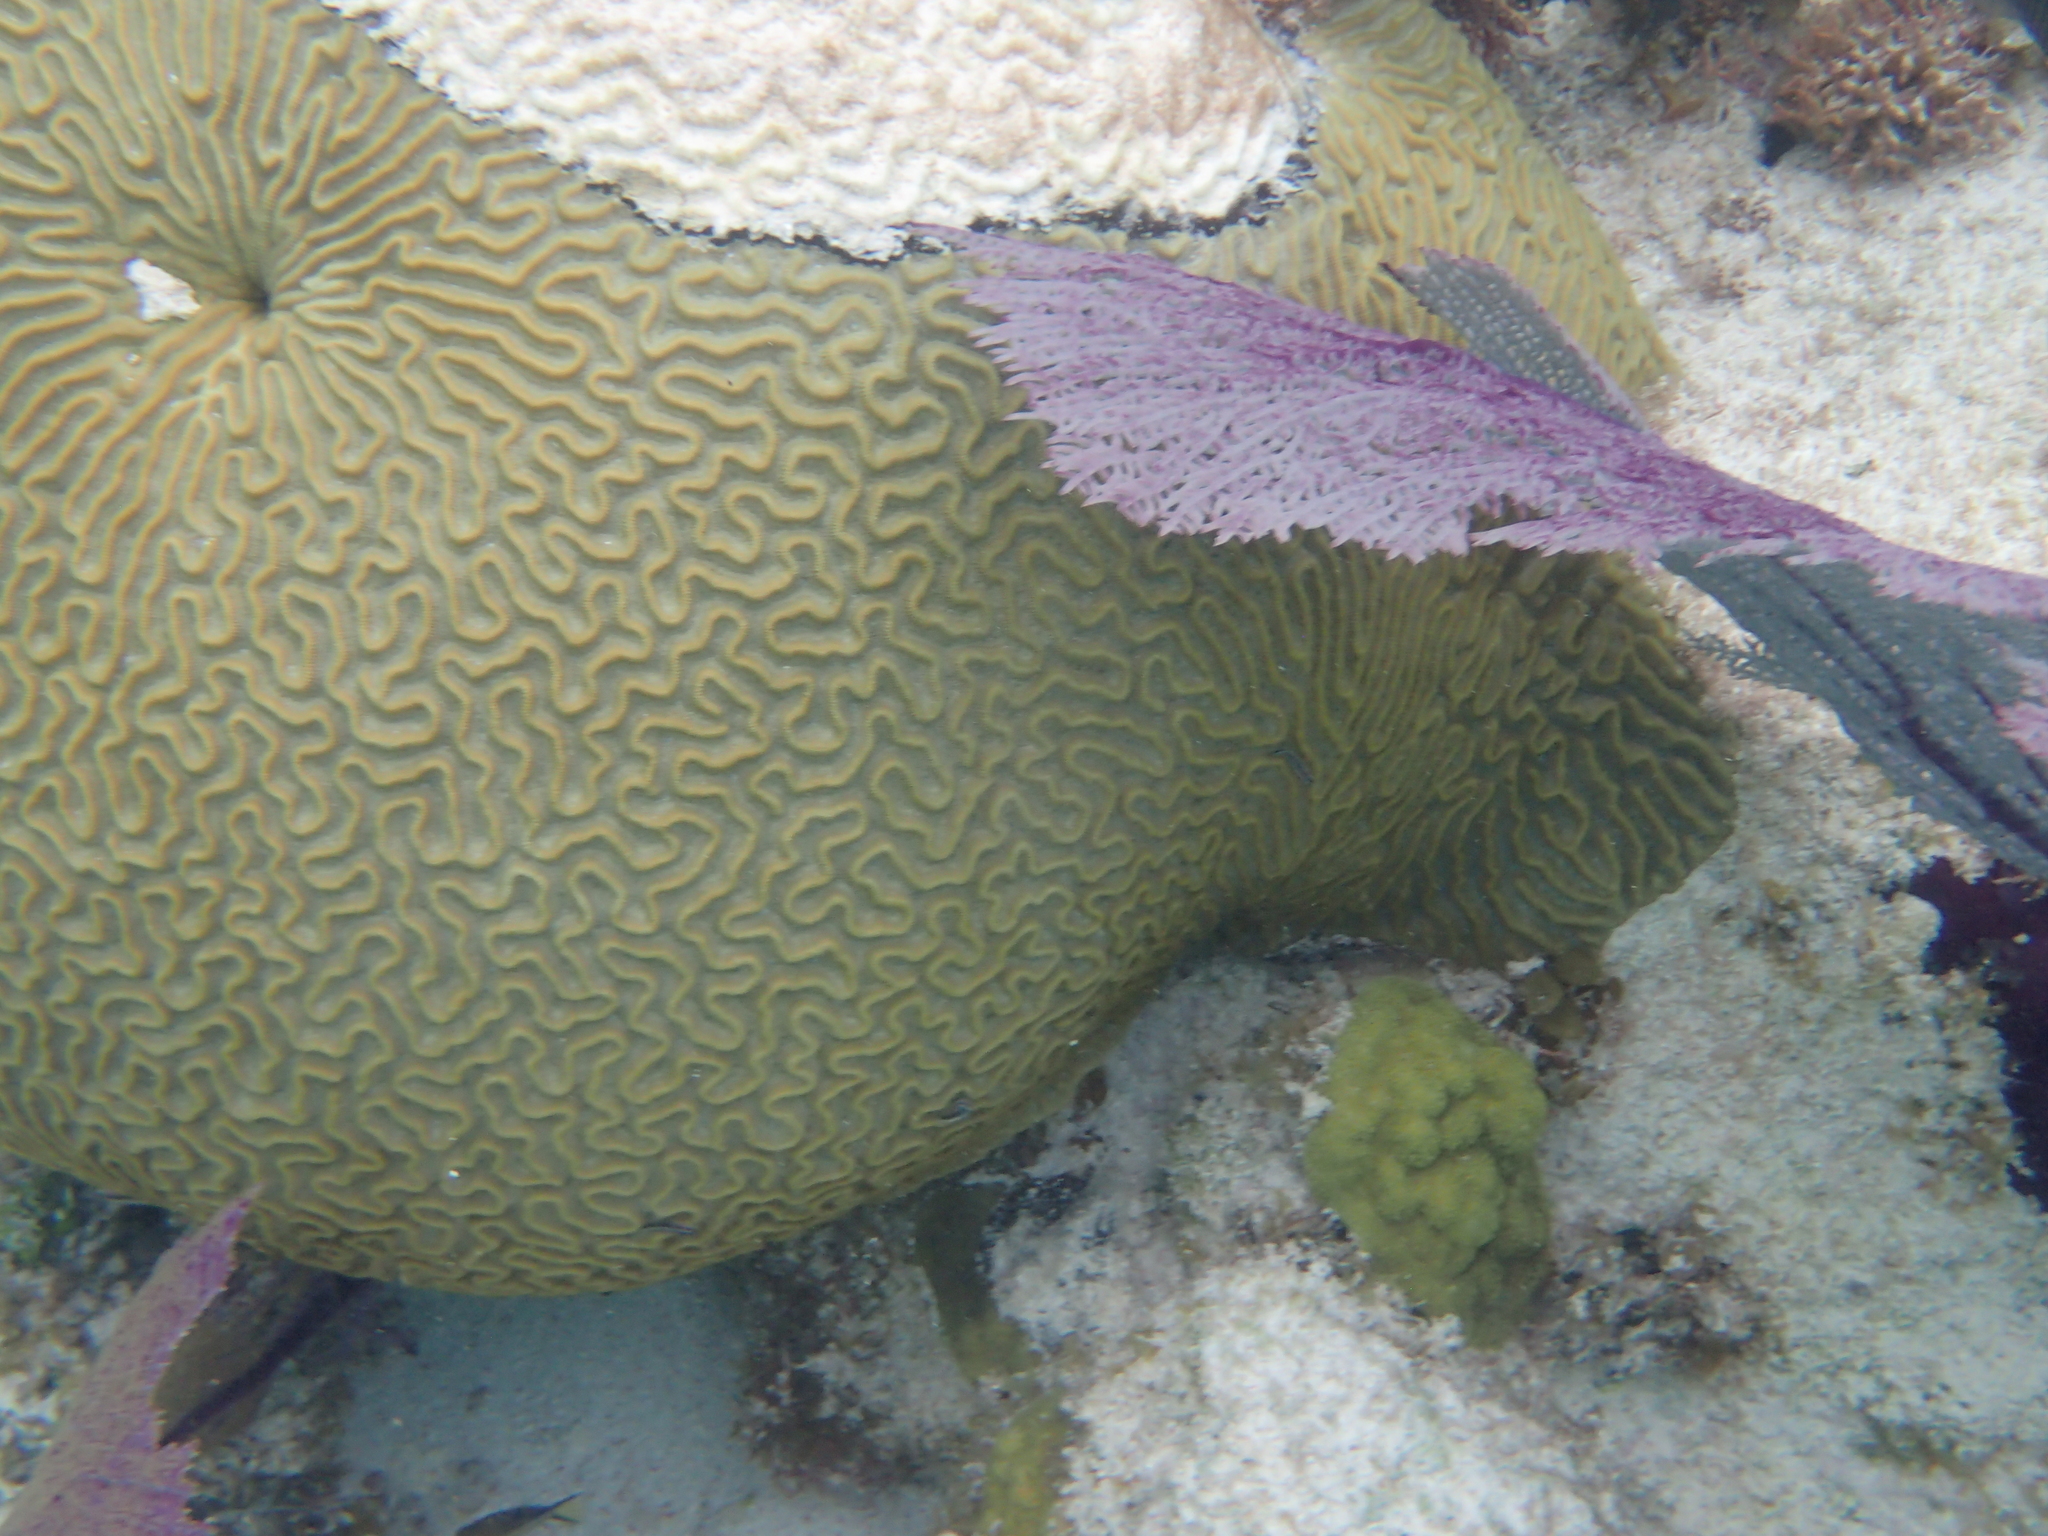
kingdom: Animalia
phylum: Cnidaria
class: Anthozoa
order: Scleractinia
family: Faviidae
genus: Pseudodiploria
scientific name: Pseudodiploria strigosa
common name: Symmetrical brain coral
